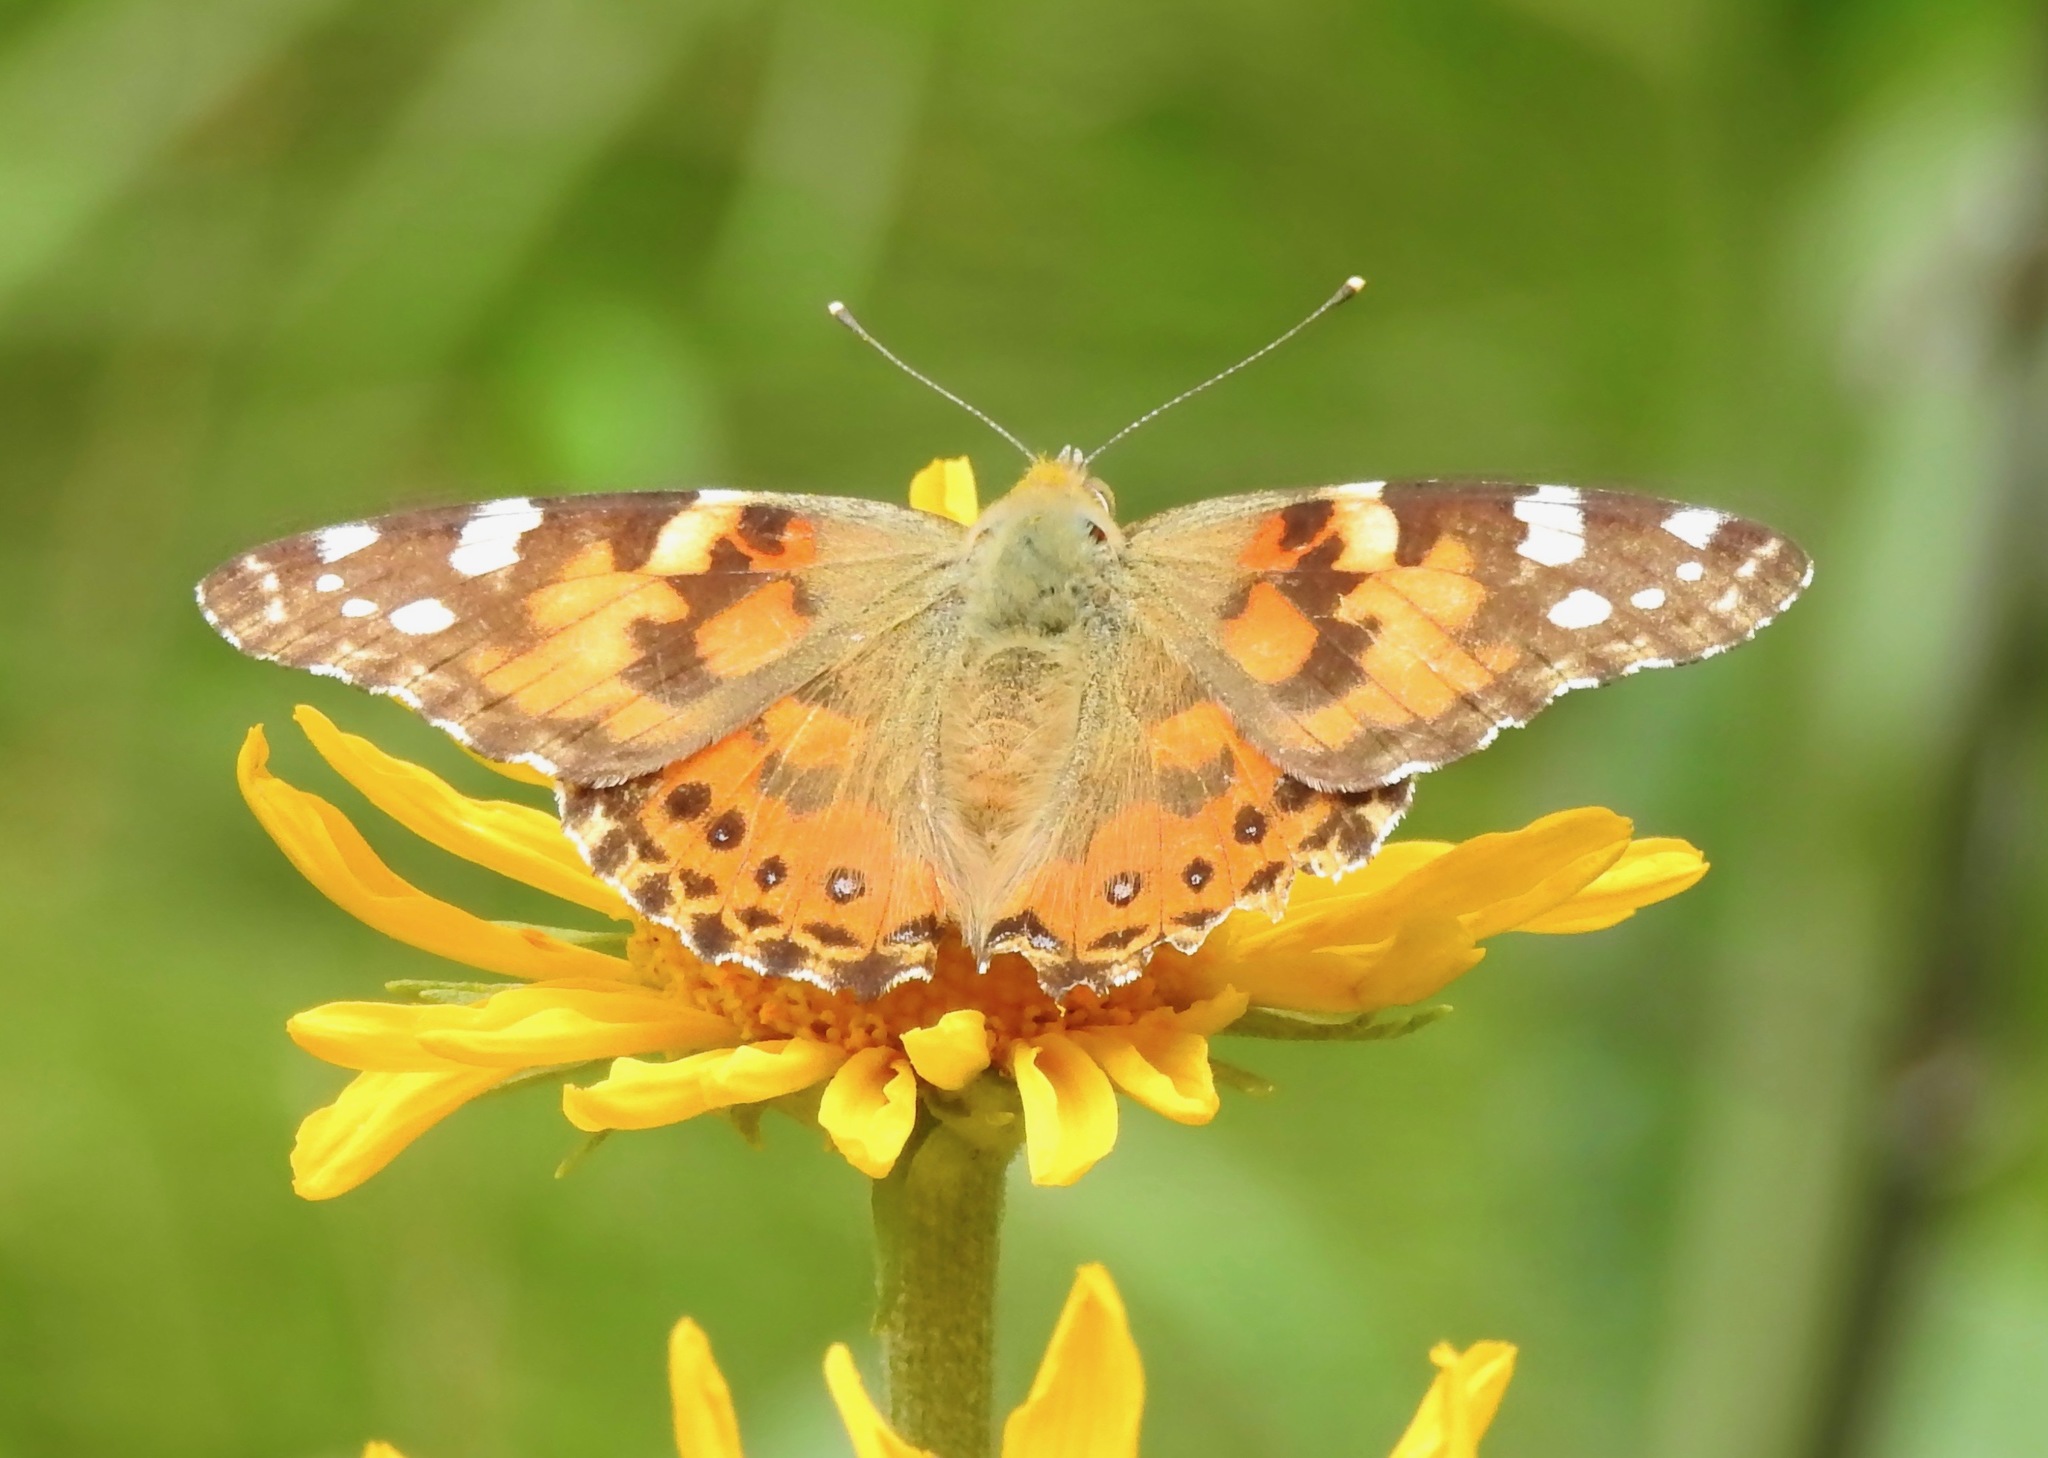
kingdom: Animalia
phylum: Arthropoda
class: Insecta
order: Lepidoptera
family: Nymphalidae
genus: Vanessa
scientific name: Vanessa cardui
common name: Painted lady
